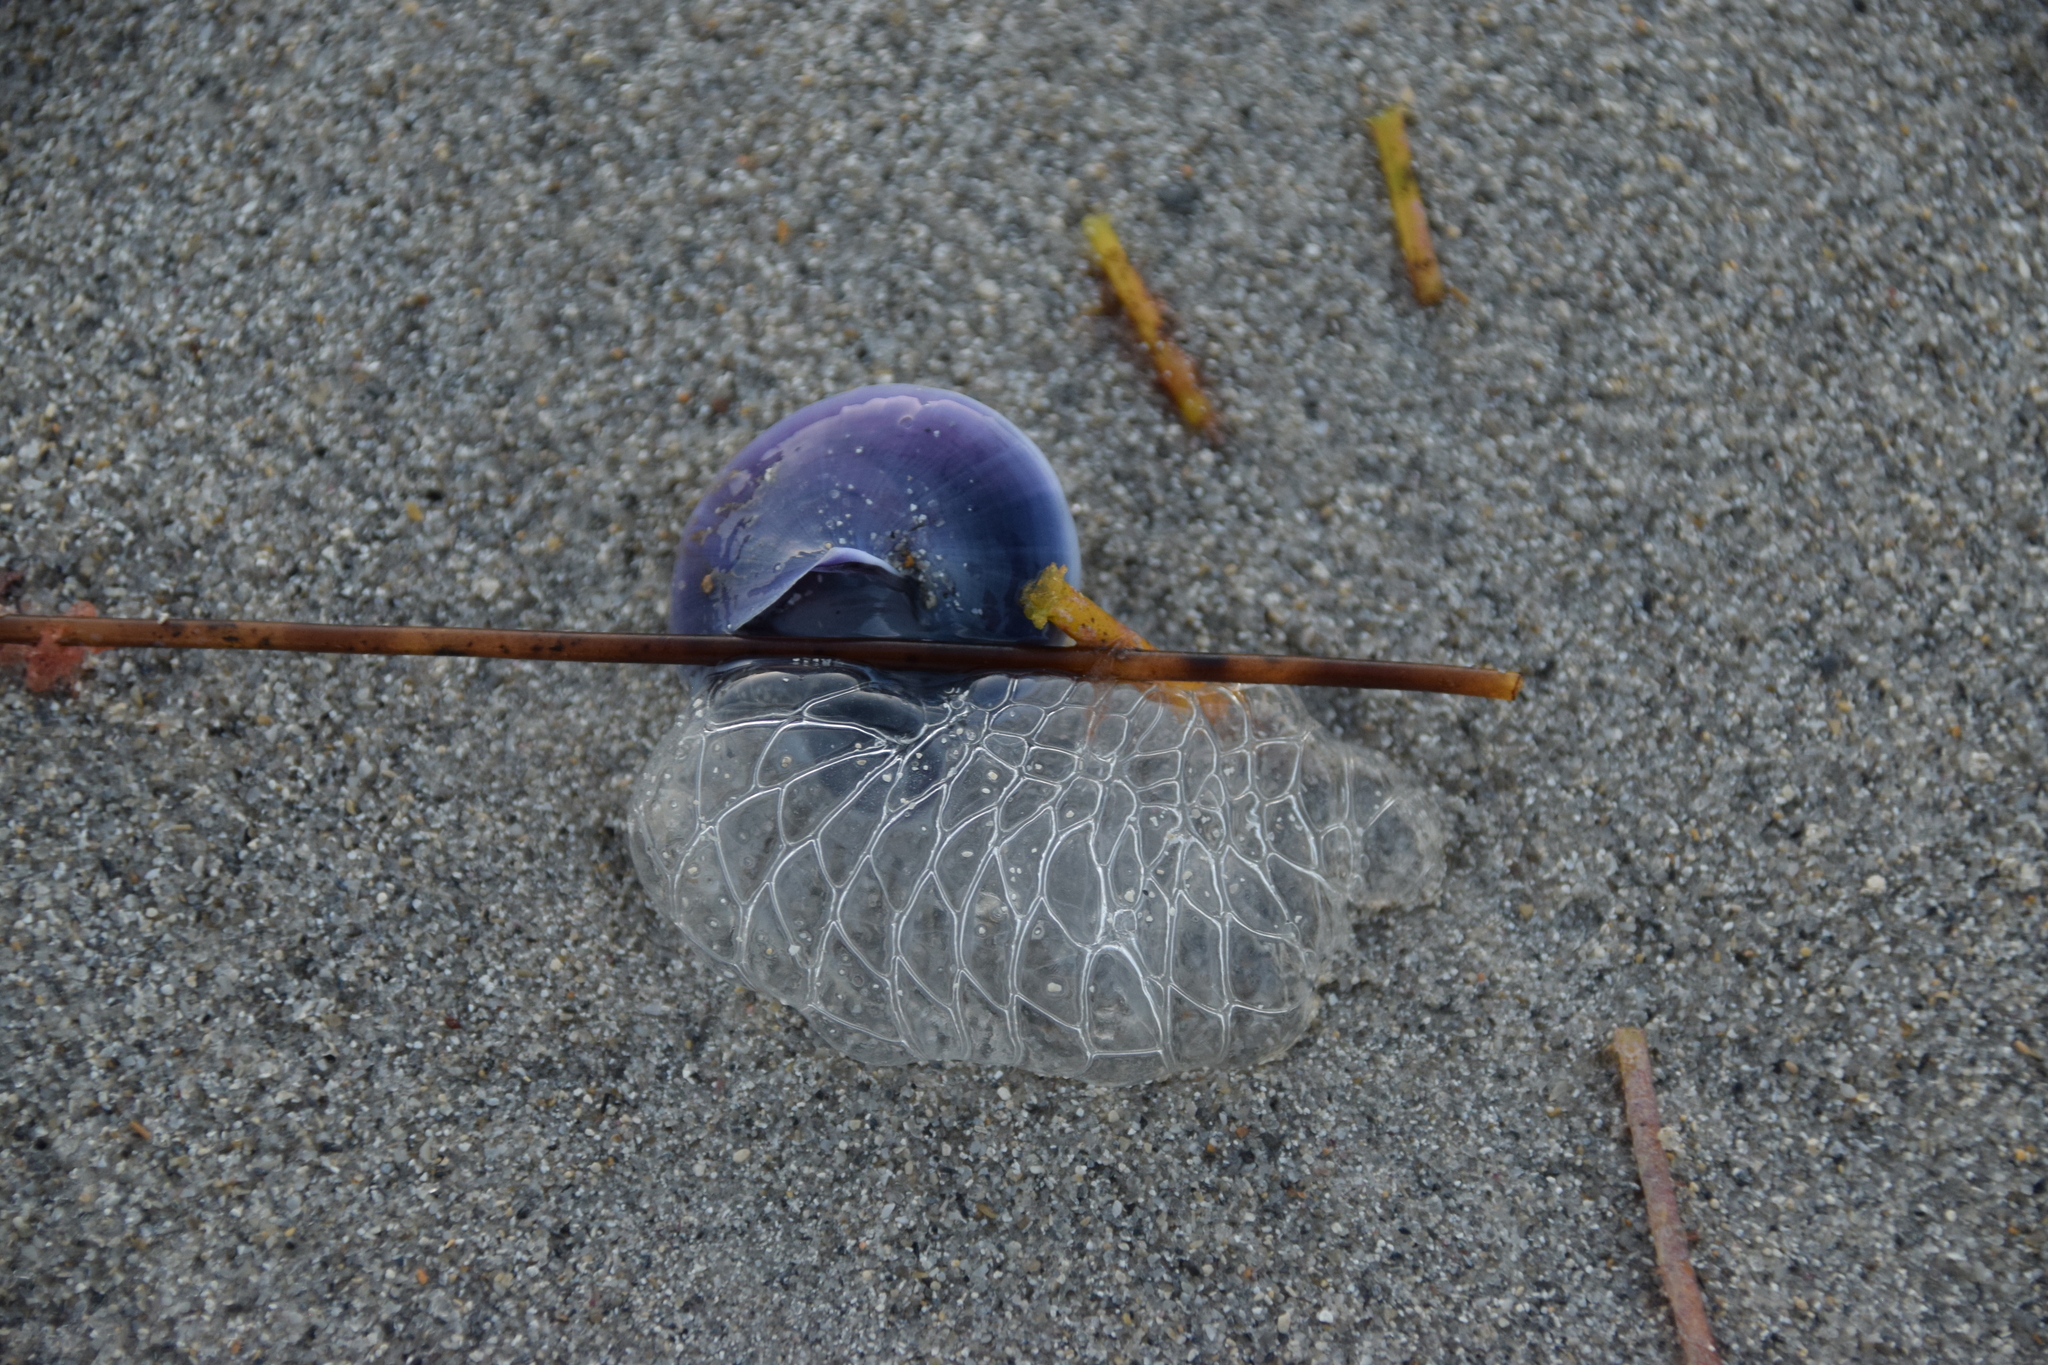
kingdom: Animalia
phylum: Mollusca
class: Gastropoda
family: Epitoniidae
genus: Janthina
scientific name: Janthina janthina
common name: Common janthina
